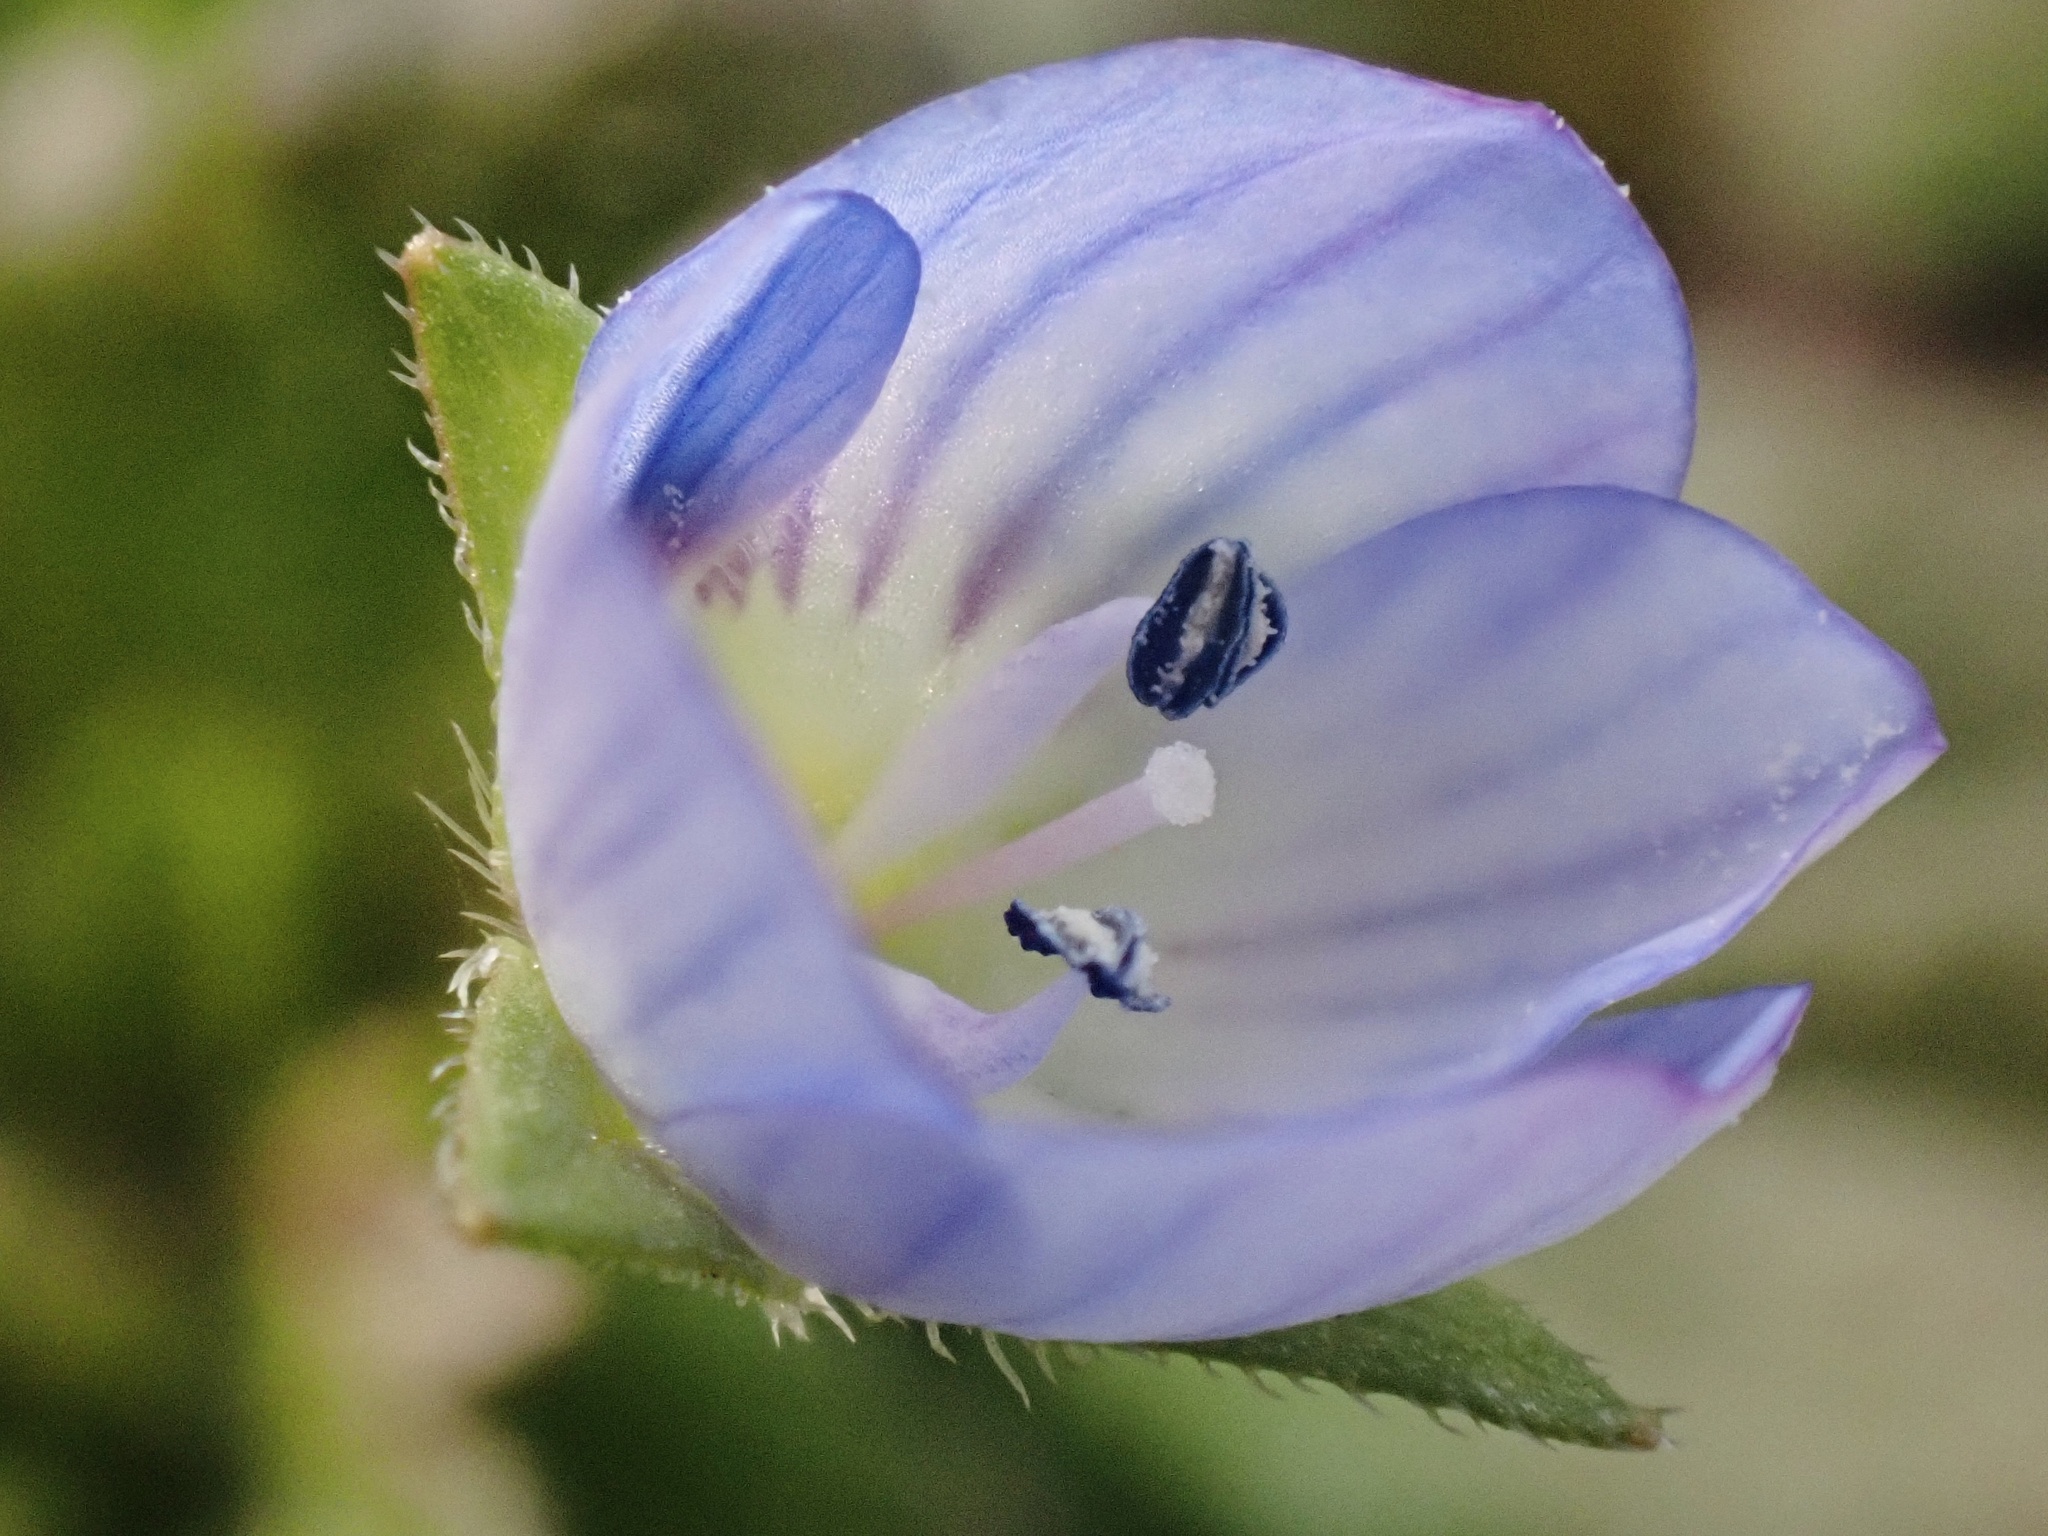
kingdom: Plantae
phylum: Tracheophyta
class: Magnoliopsida
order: Lamiales
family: Plantaginaceae
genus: Veronica
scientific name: Veronica persica
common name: Common field-speedwell
